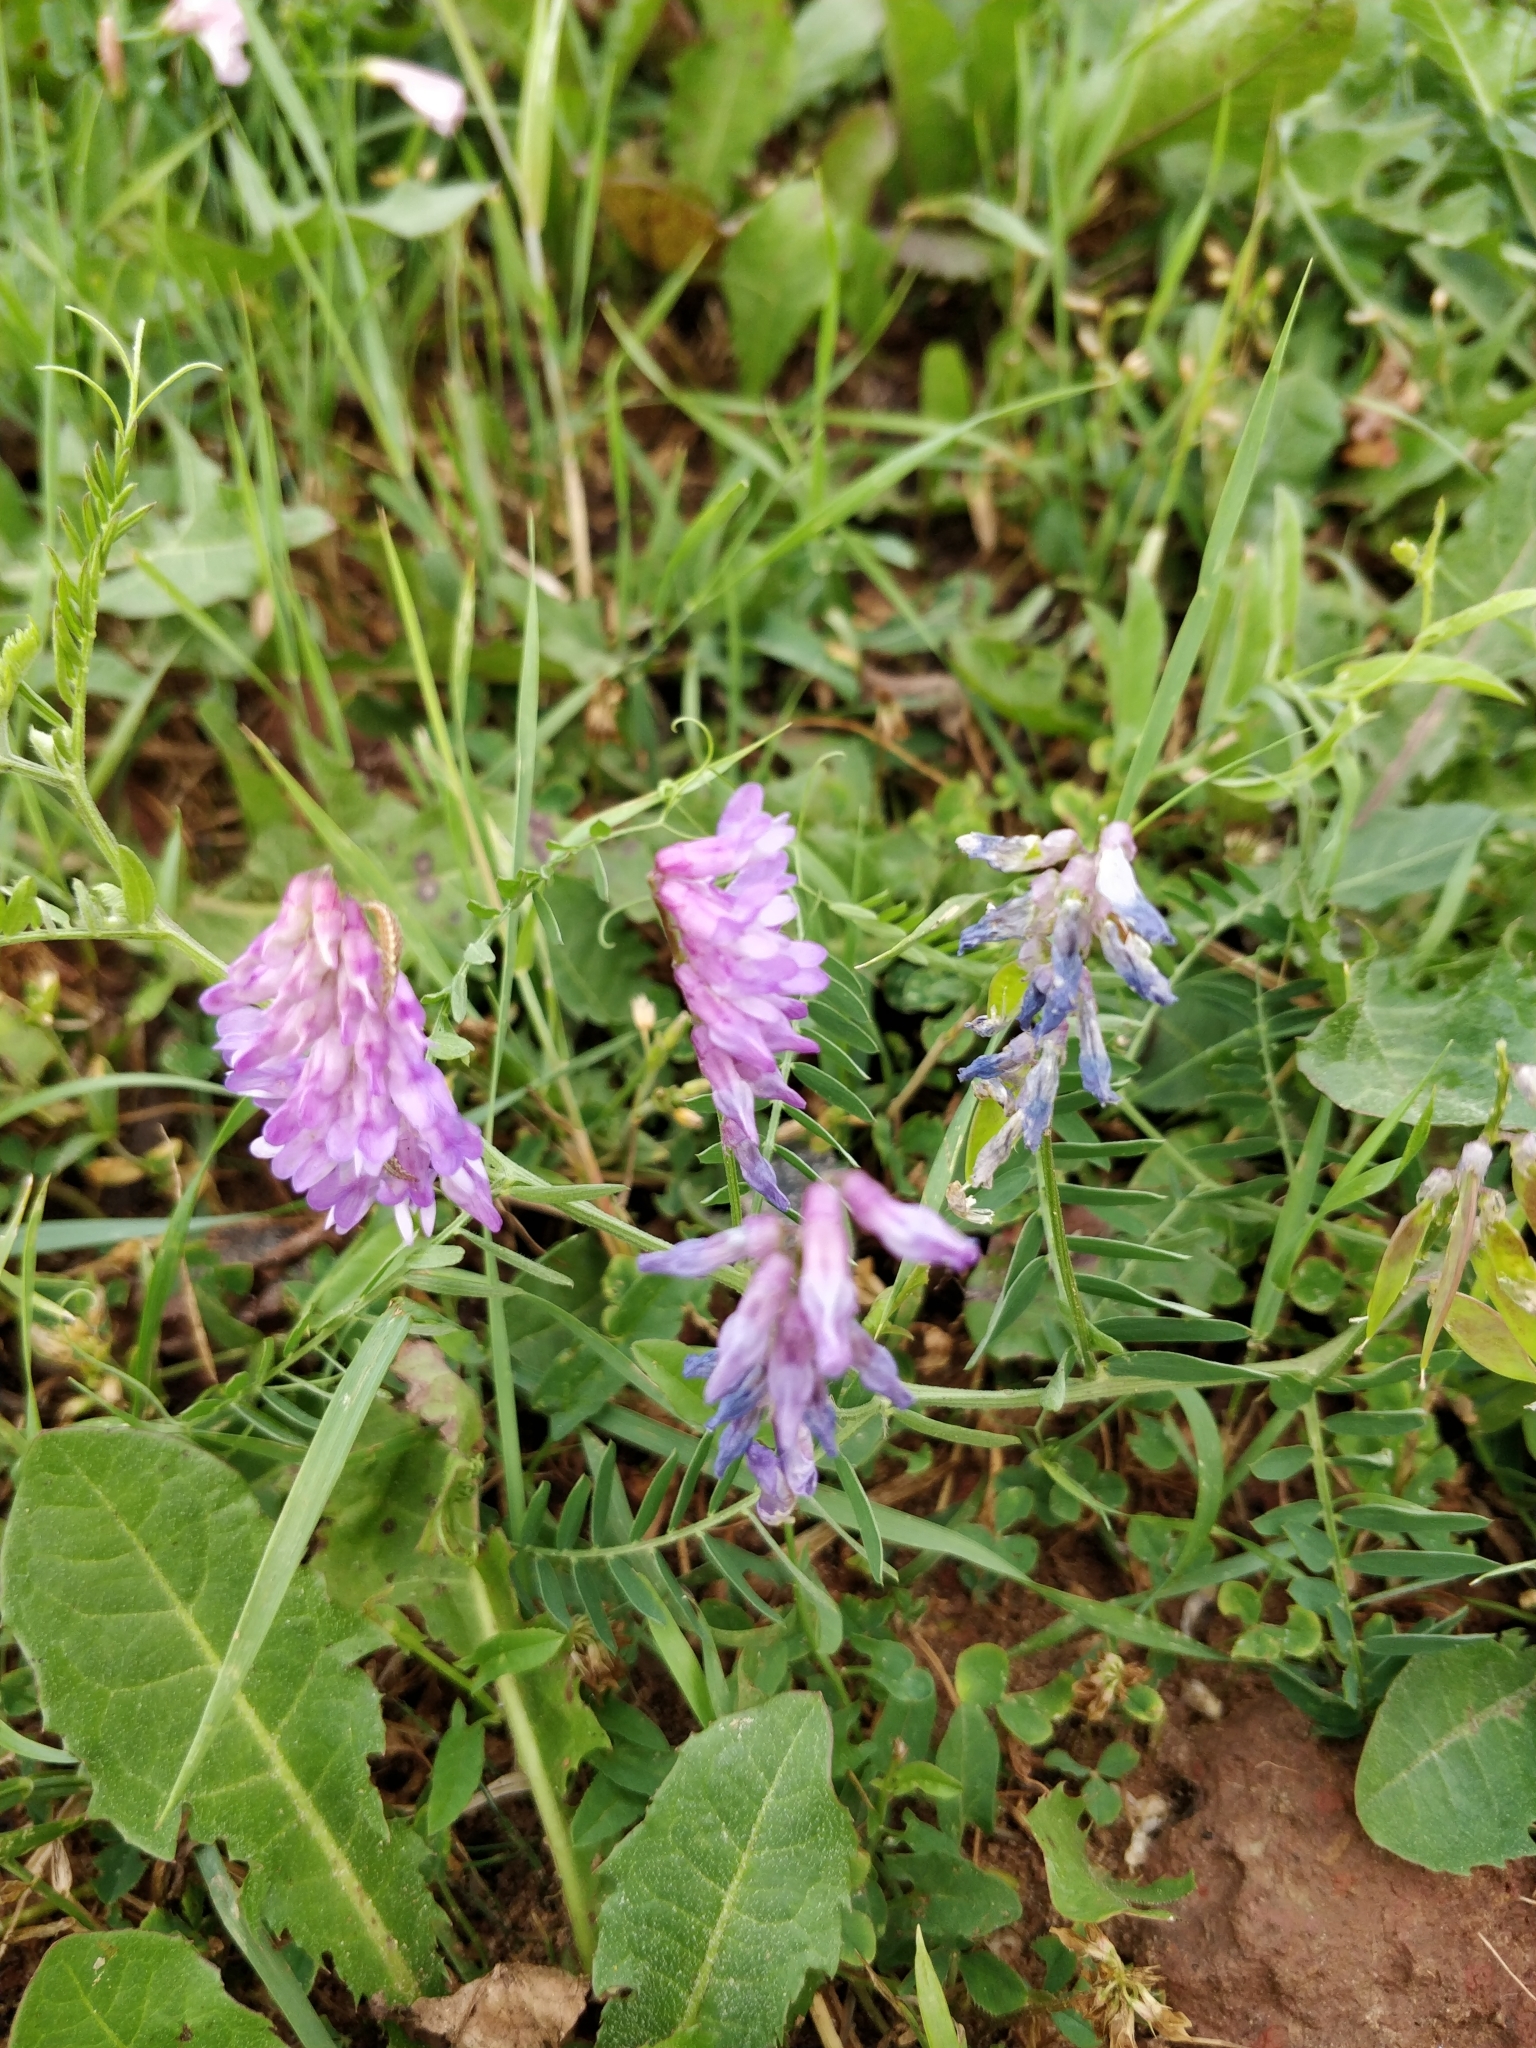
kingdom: Plantae
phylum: Tracheophyta
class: Magnoliopsida
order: Fabales
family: Fabaceae
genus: Vicia
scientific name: Vicia cracca
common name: Bird vetch
